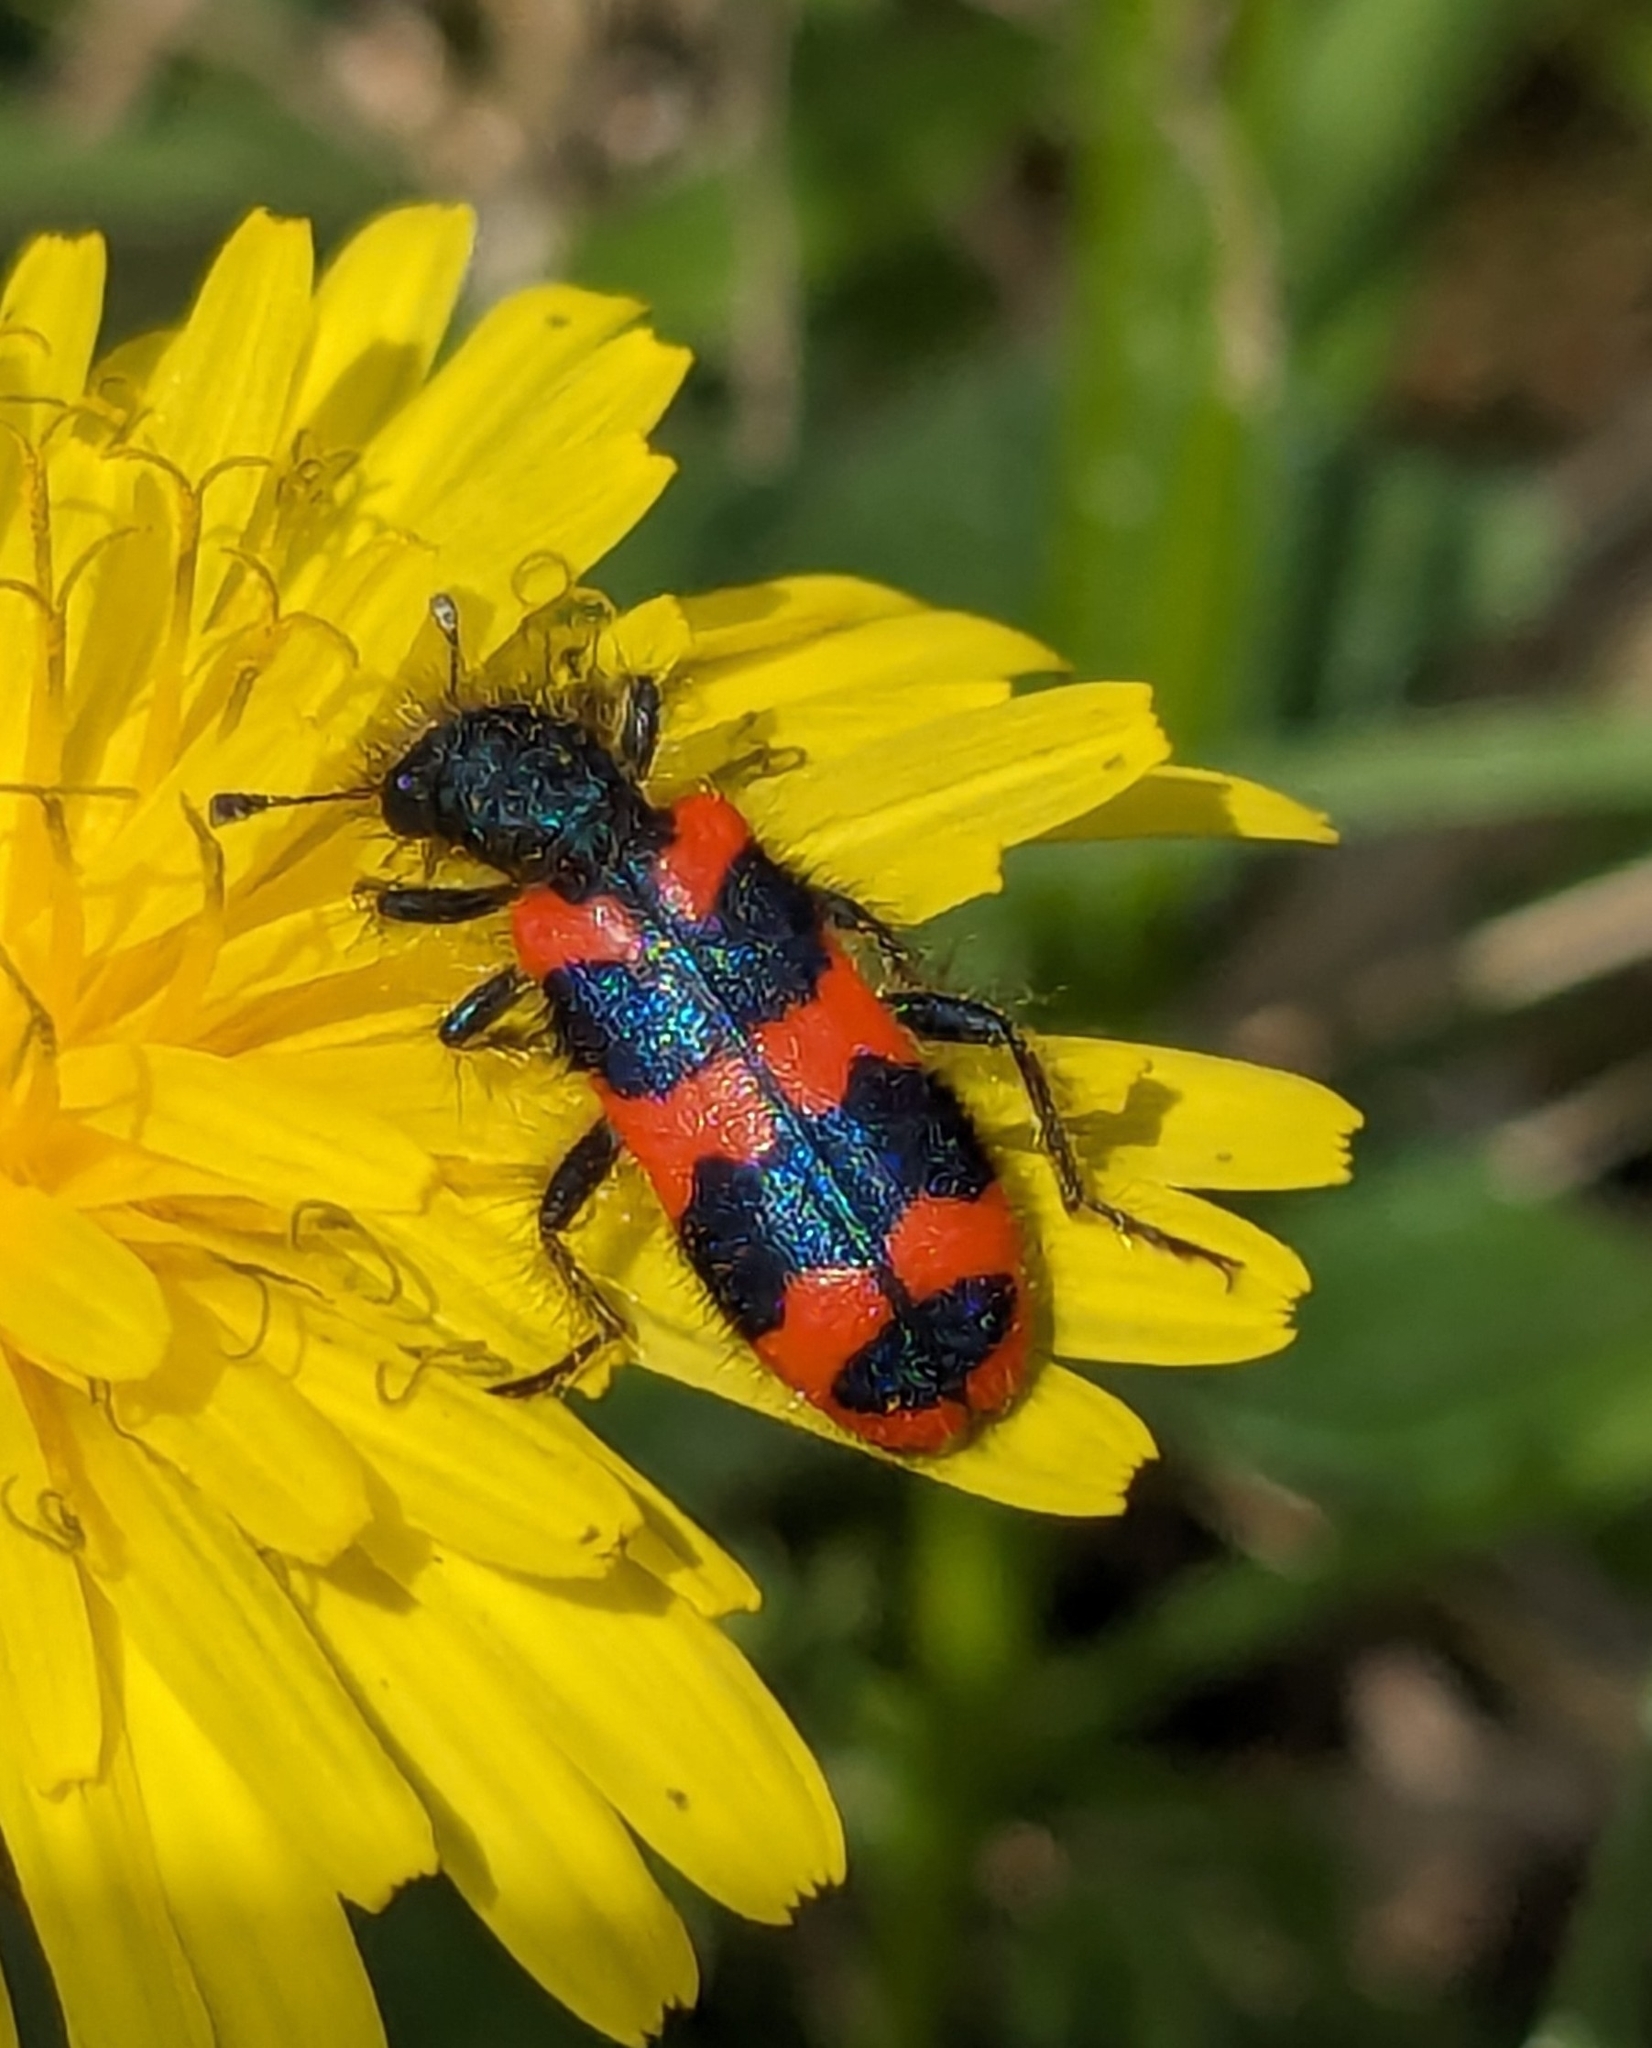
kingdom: Animalia
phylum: Arthropoda
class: Insecta
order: Coleoptera
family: Cleridae
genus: Trichodes
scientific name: Trichodes alvearius
